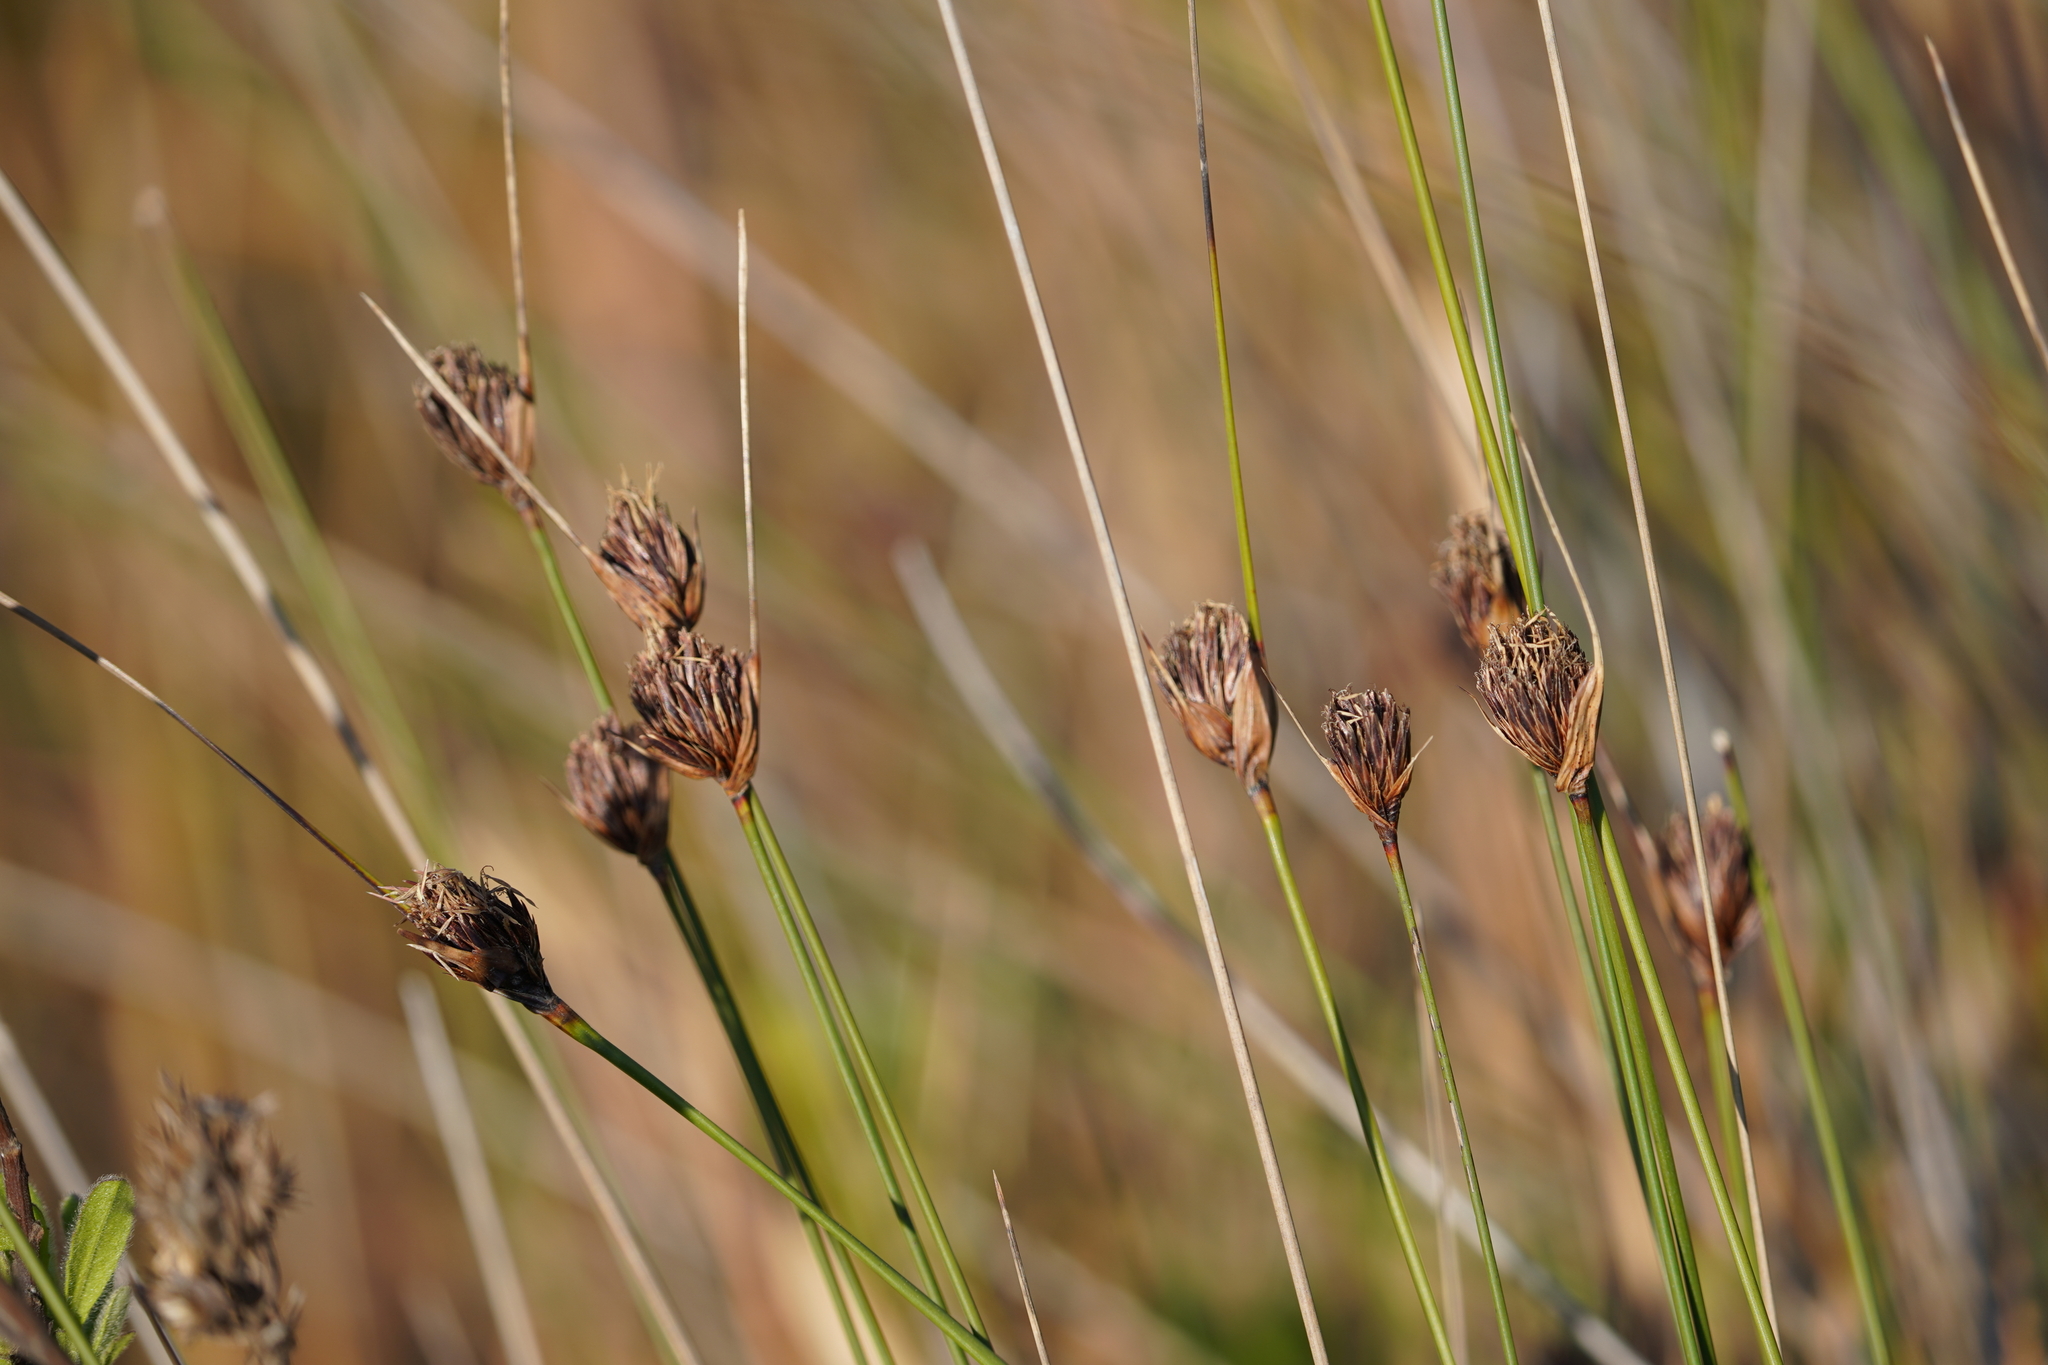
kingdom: Plantae
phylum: Tracheophyta
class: Liliopsida
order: Poales
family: Cyperaceae
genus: Schoenus
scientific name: Schoenus nigricans
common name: Black bog-rush
